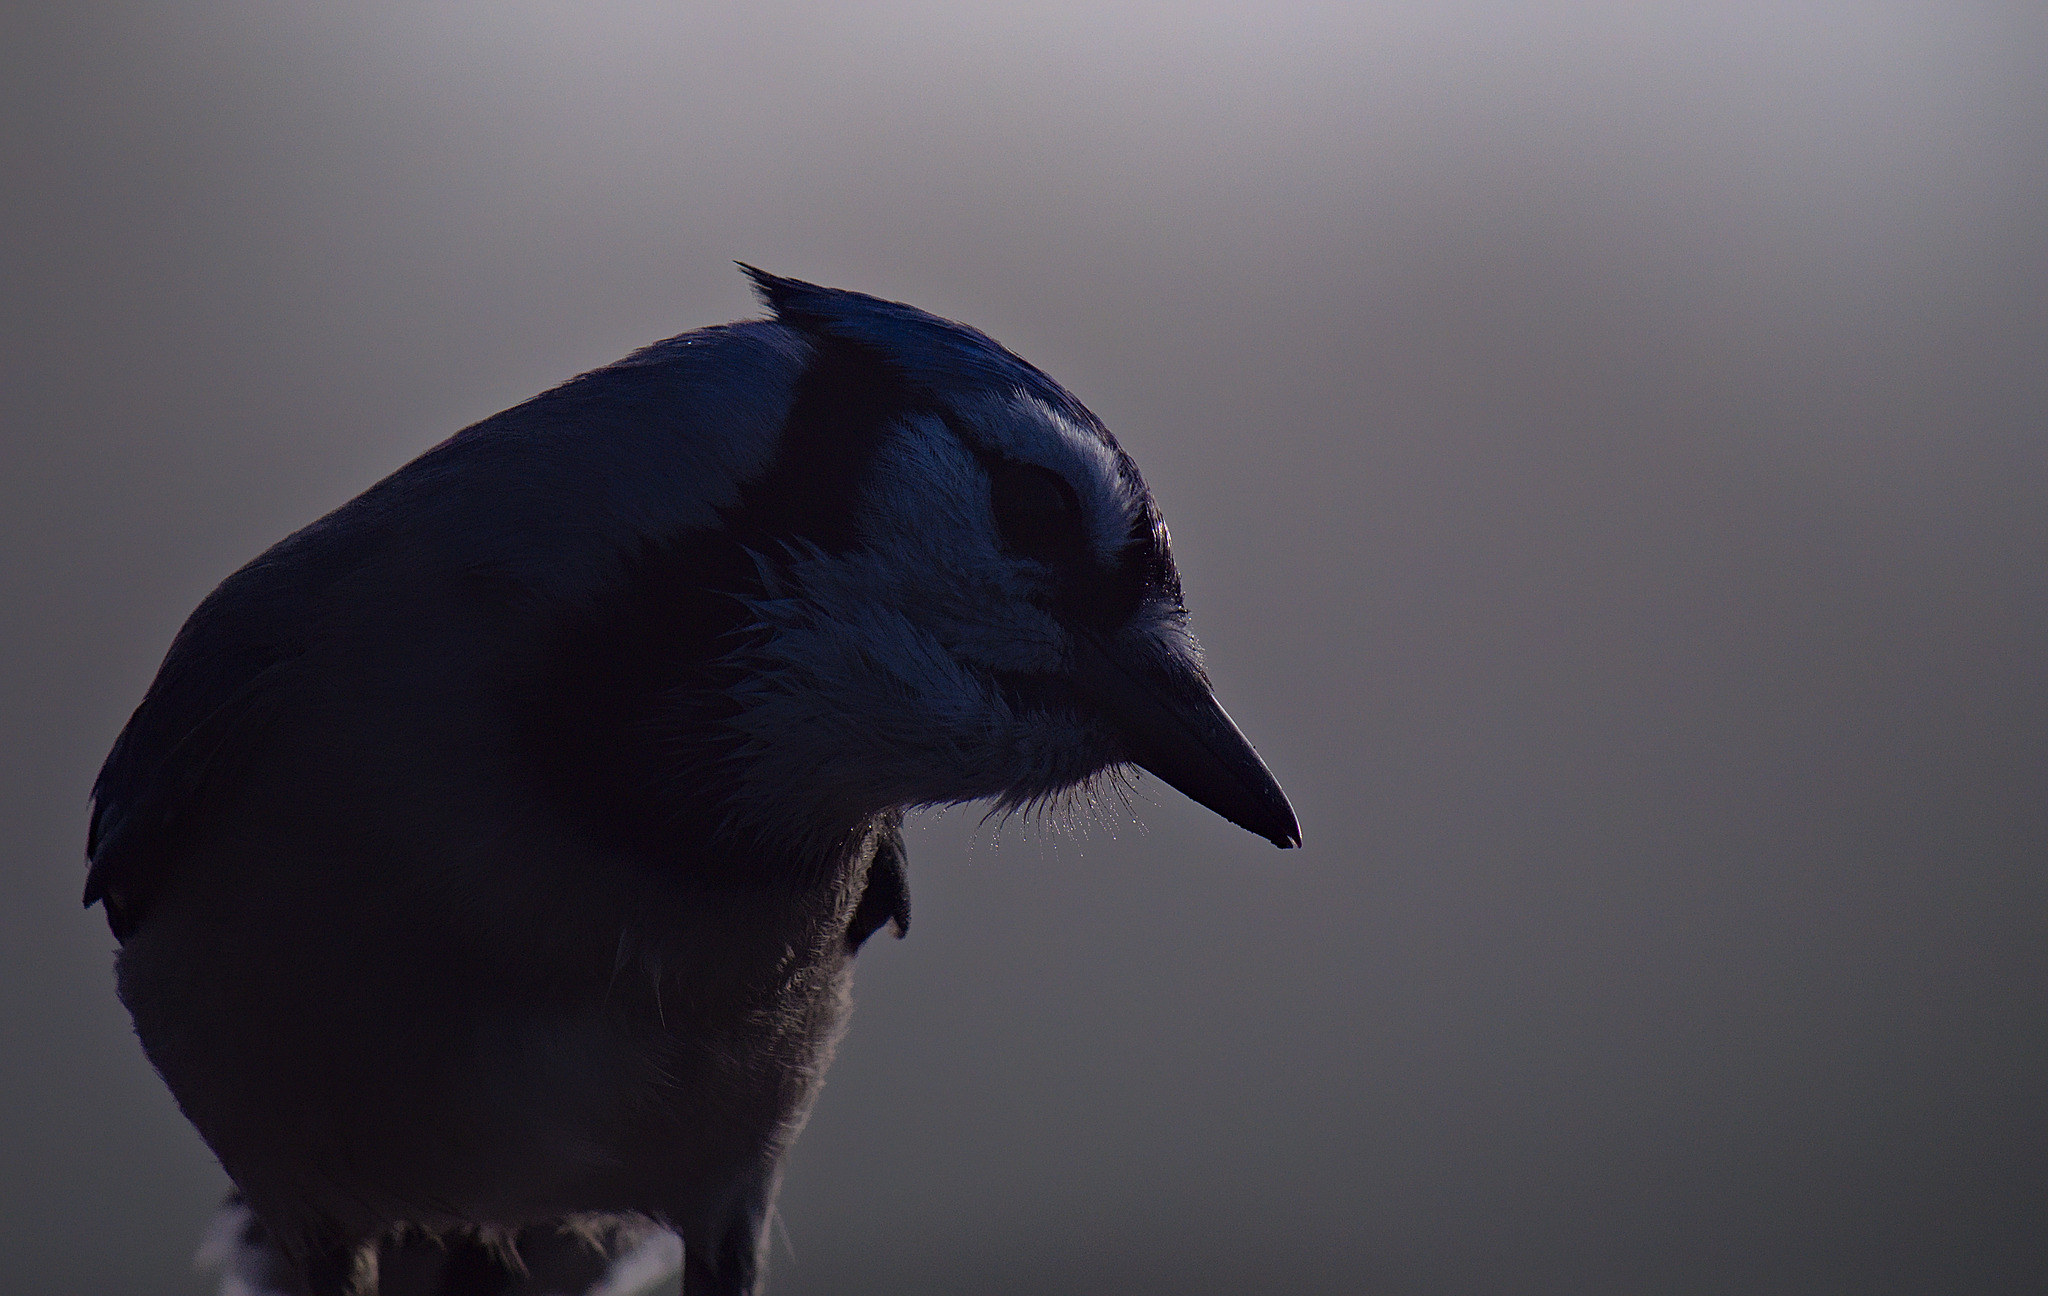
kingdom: Animalia
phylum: Chordata
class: Aves
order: Passeriformes
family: Corvidae
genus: Cyanocitta
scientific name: Cyanocitta cristata
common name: Blue jay
